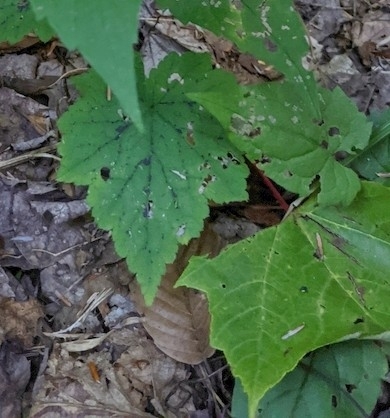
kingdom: Plantae
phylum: Tracheophyta
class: Magnoliopsida
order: Saxifragales
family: Saxifragaceae
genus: Tiarella
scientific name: Tiarella stolonifera
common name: Stoloniferous foamflower
